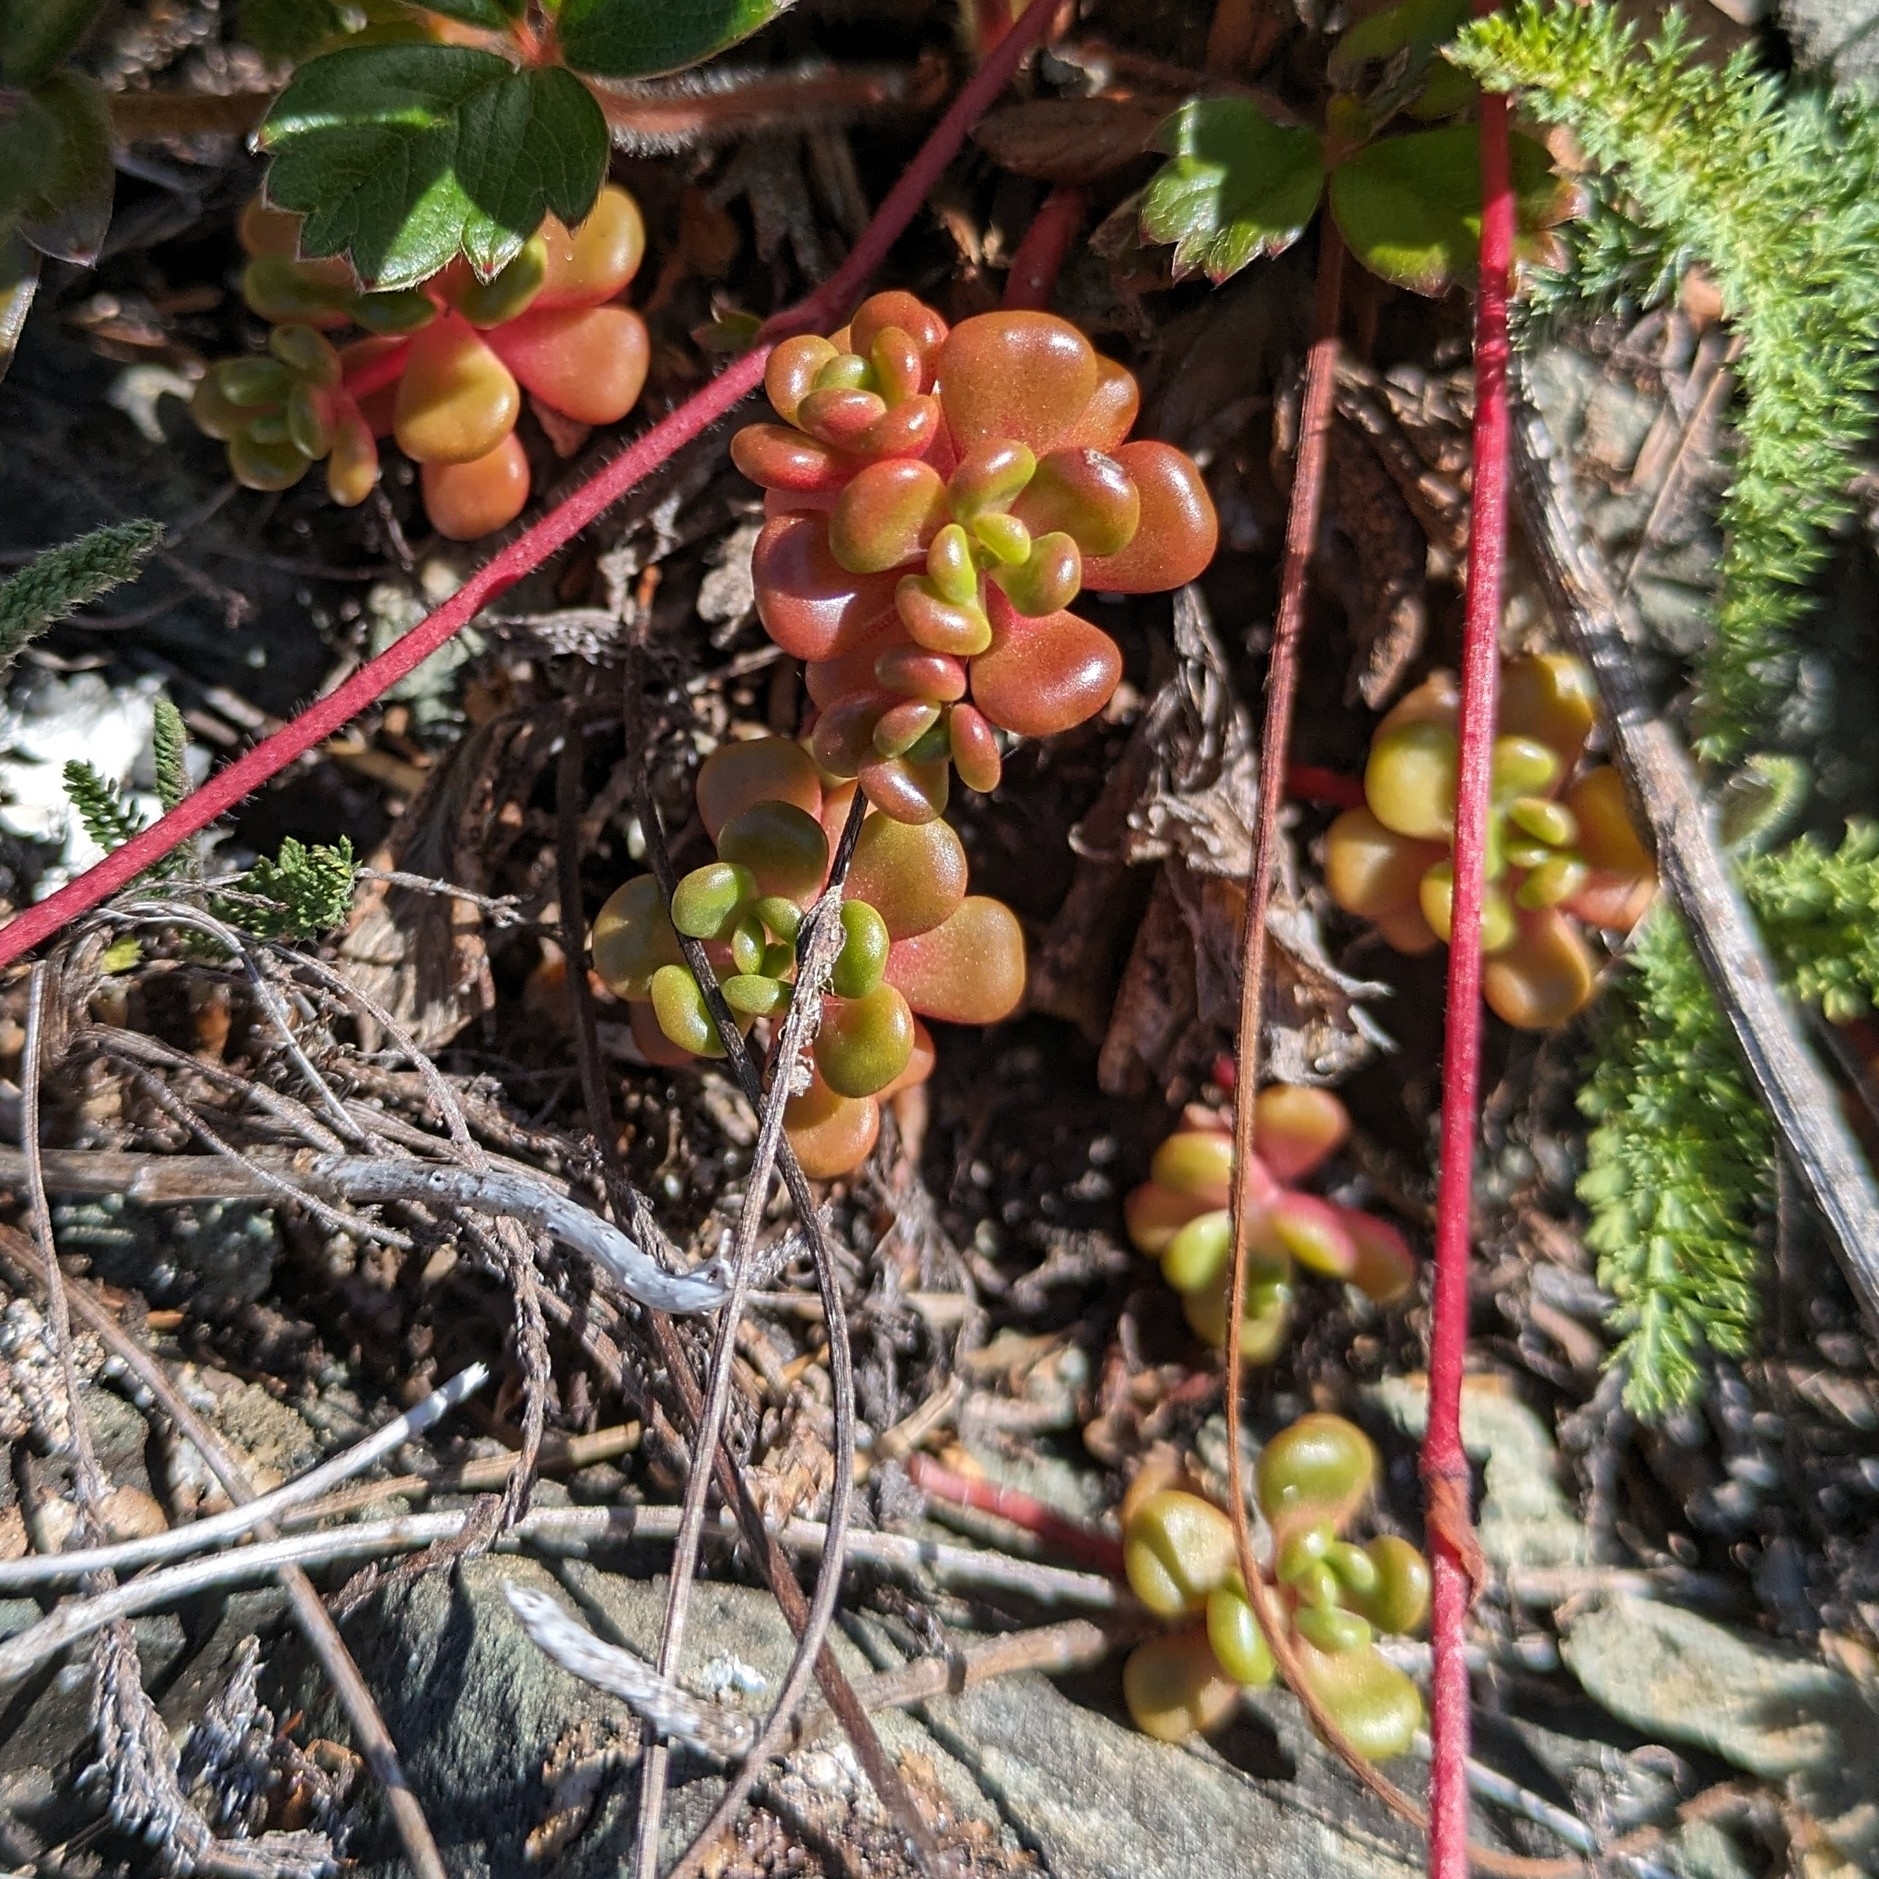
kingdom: Plantae
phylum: Tracheophyta
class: Magnoliopsida
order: Saxifragales
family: Crassulaceae
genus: Sedum
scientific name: Sedum oreganum
